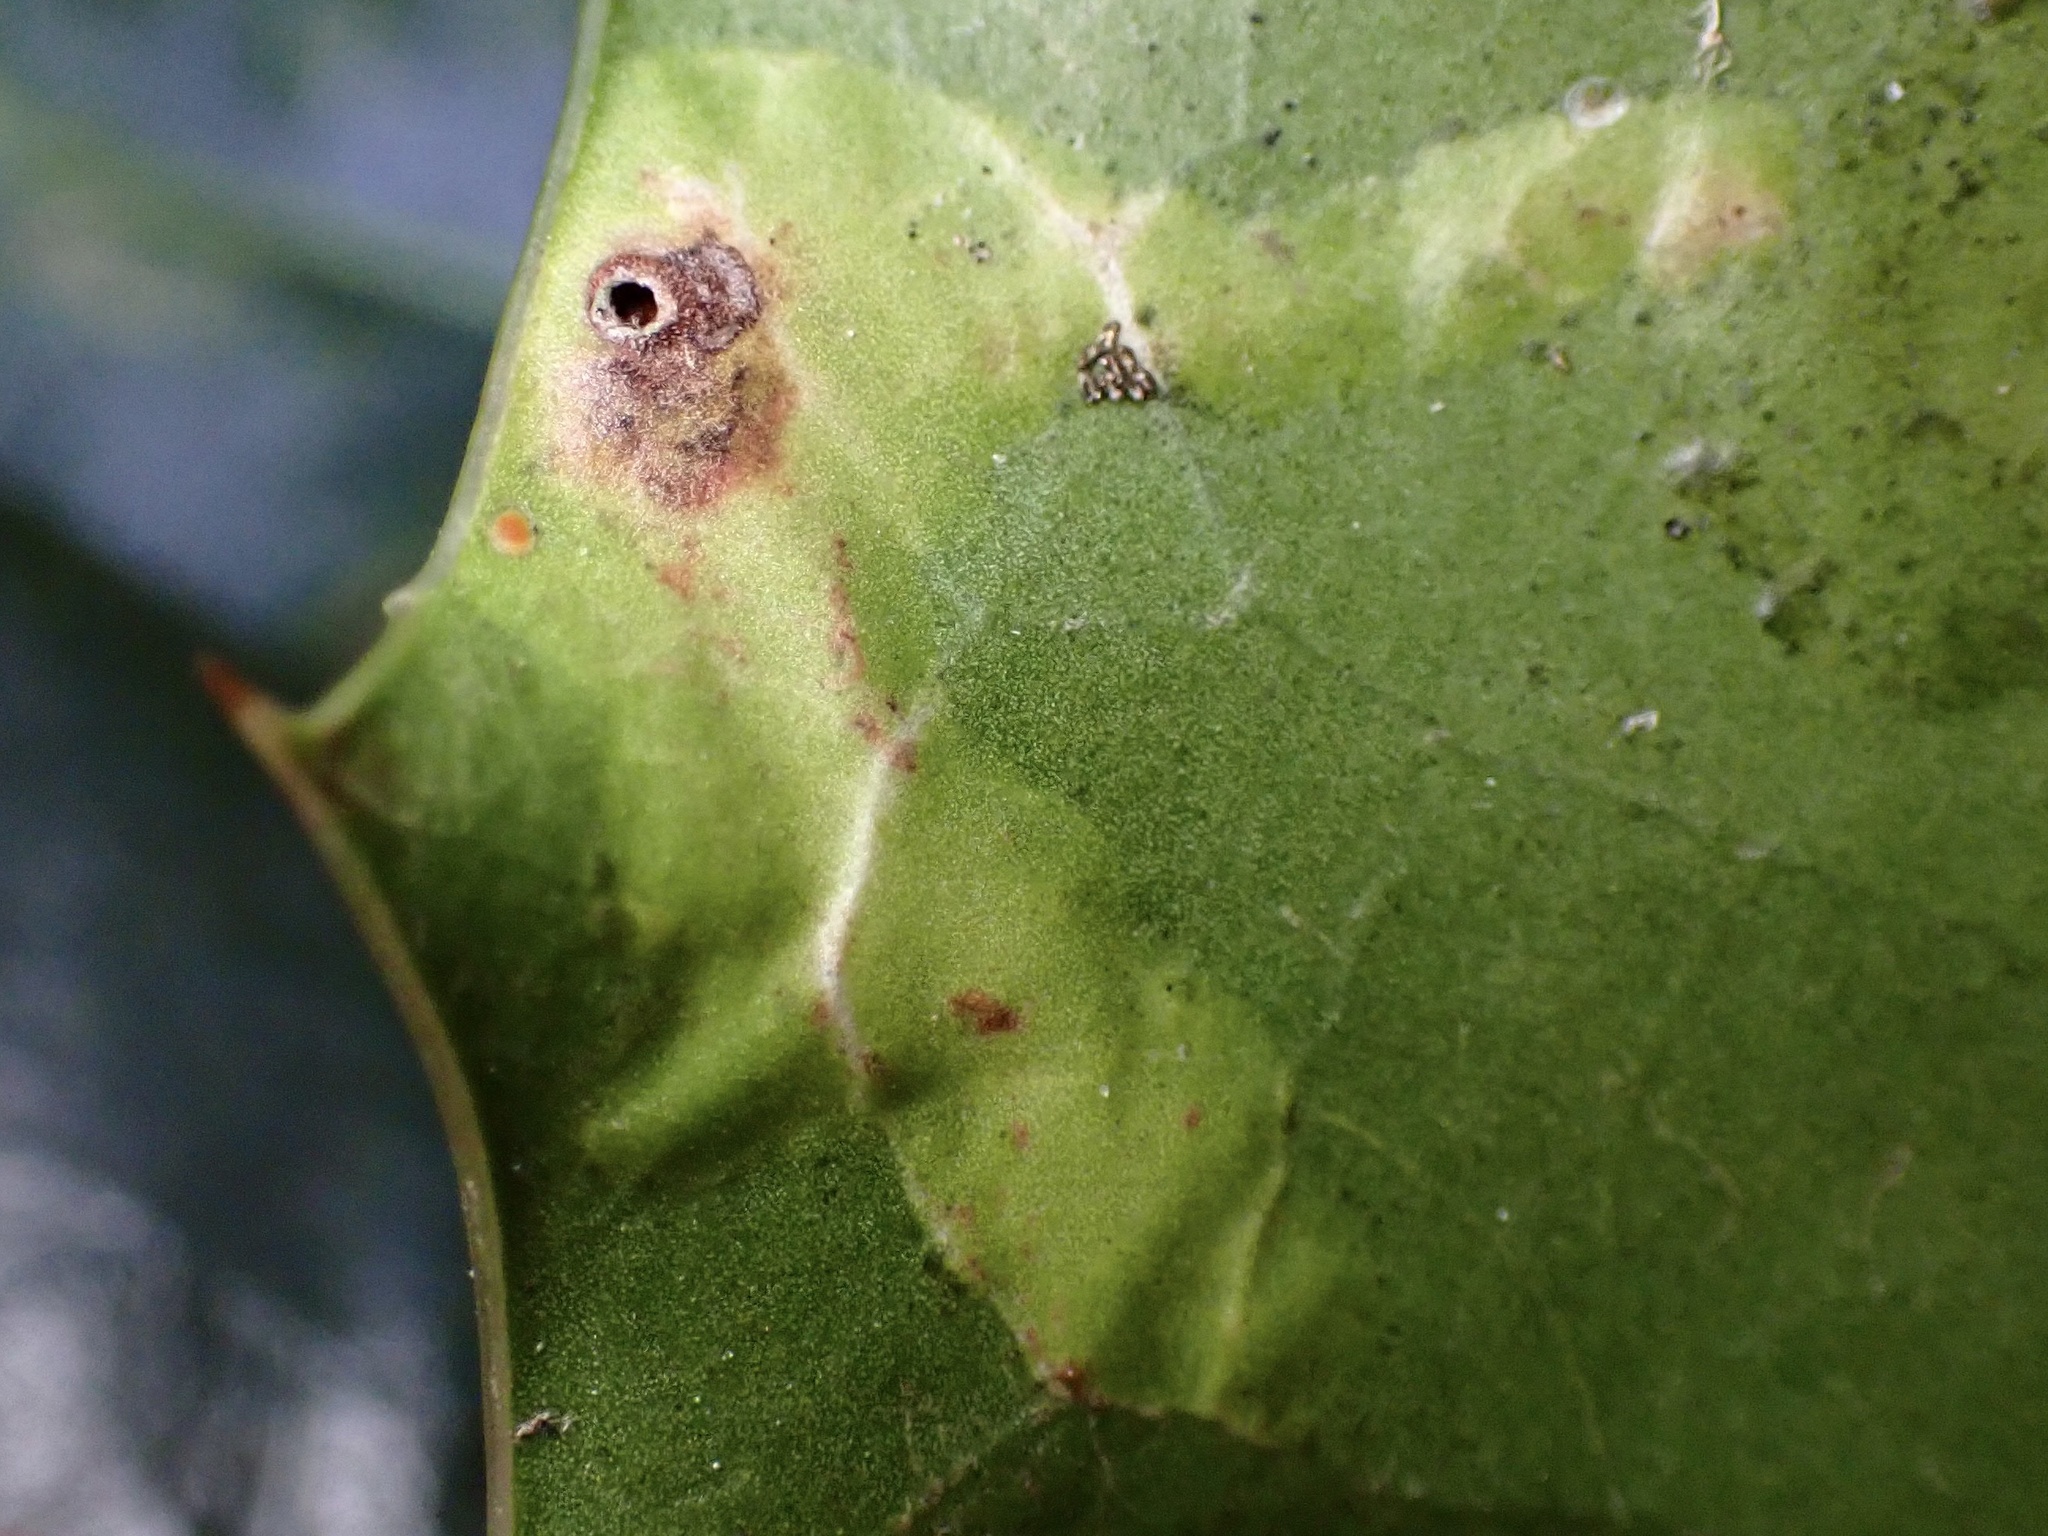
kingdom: Animalia
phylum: Arthropoda
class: Insecta
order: Diptera
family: Agromyzidae
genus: Phytomyza
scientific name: Phytomyza ilicis
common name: Holly leafminer
